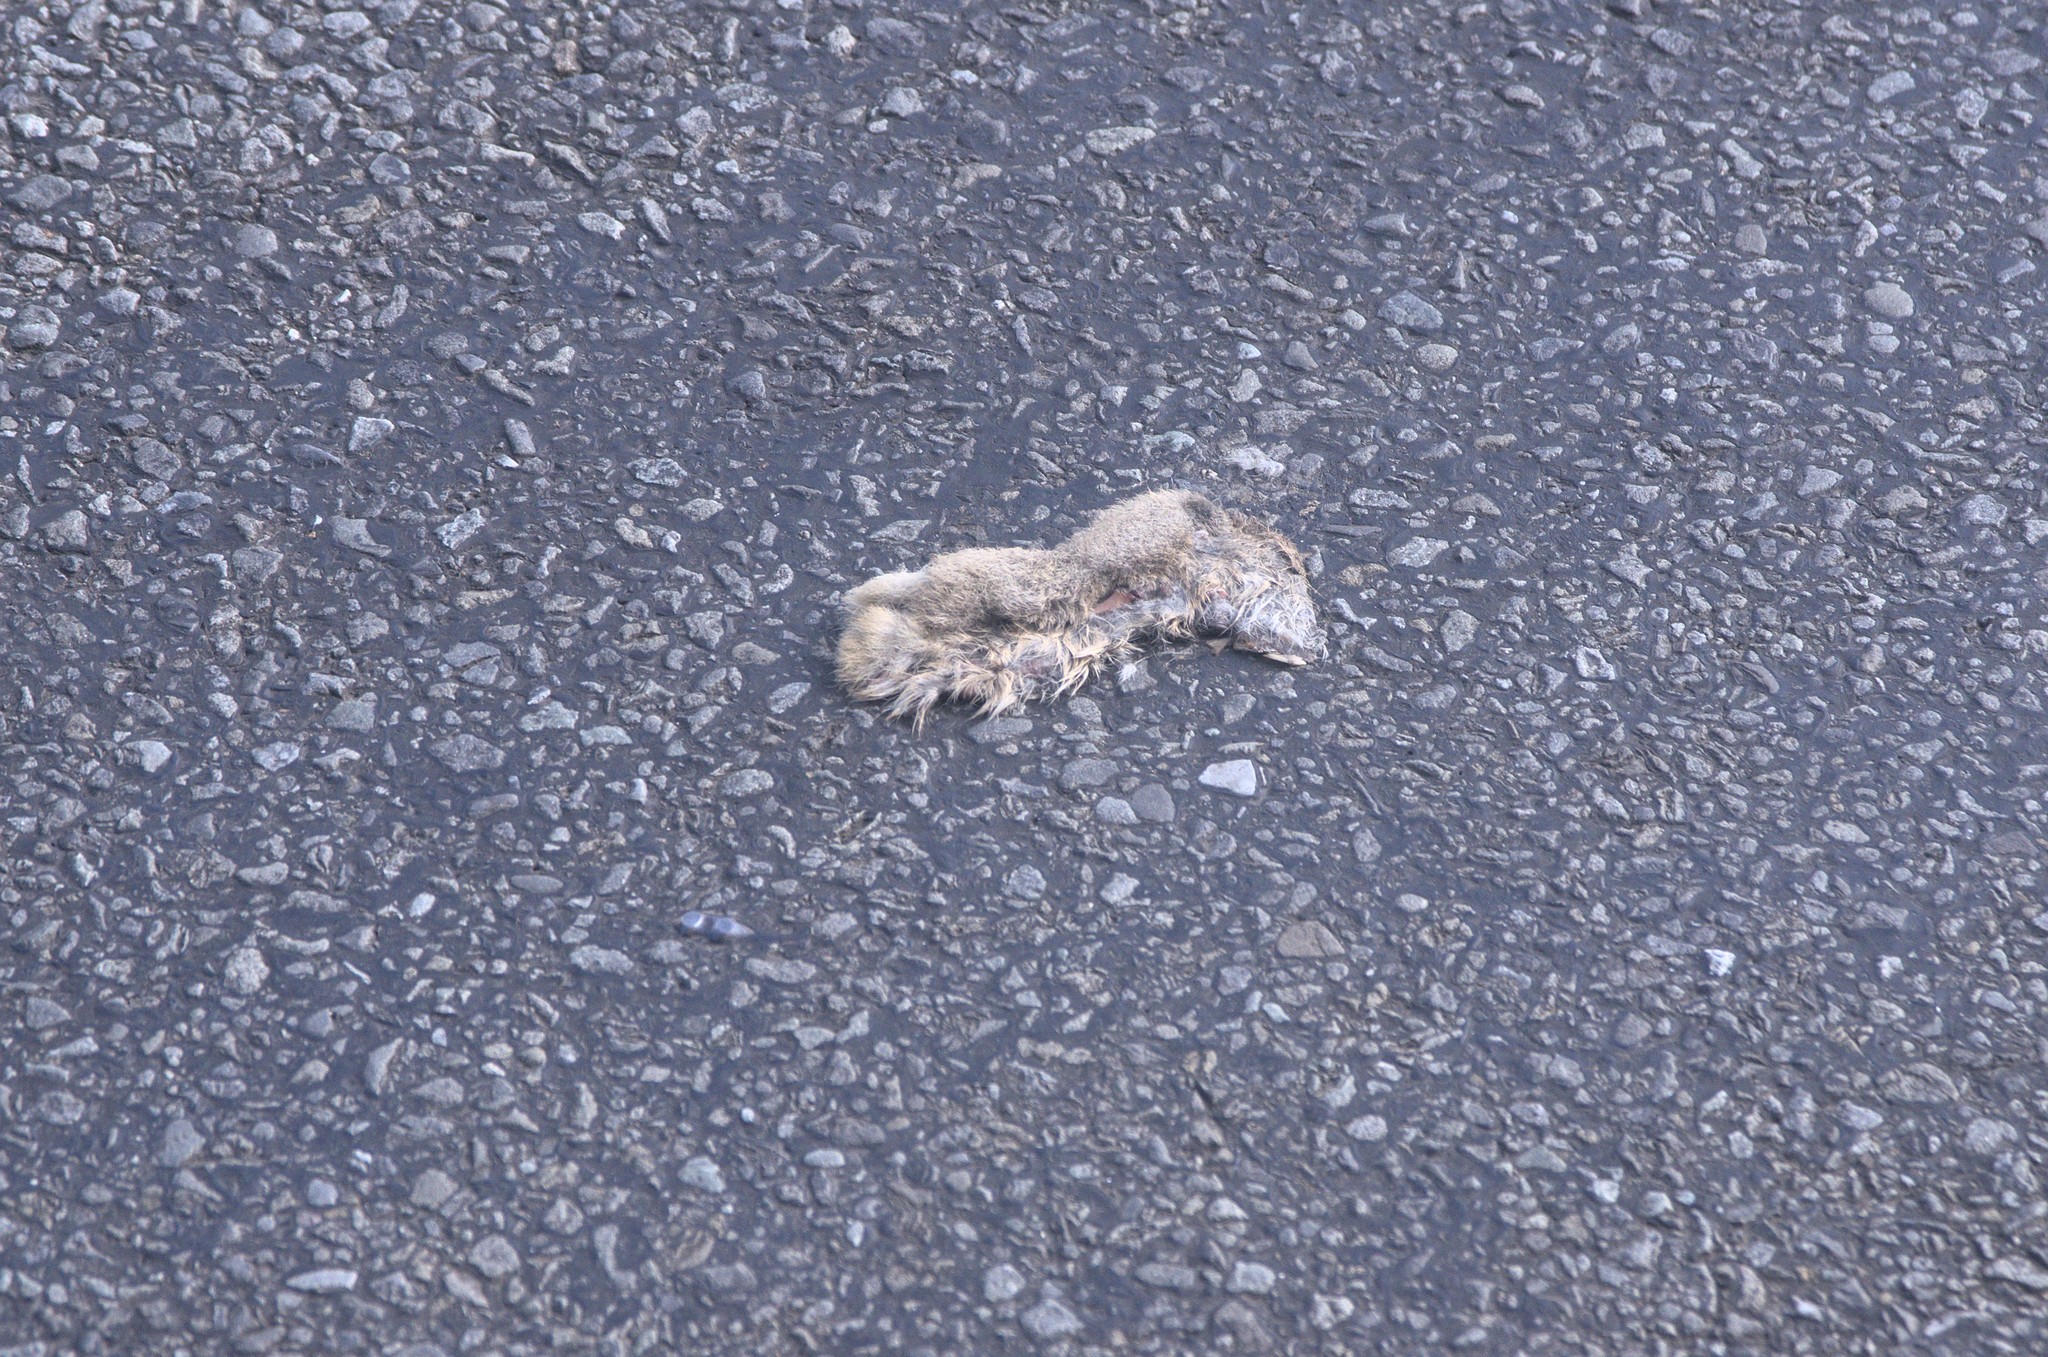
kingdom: Animalia
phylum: Chordata
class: Mammalia
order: Lagomorpha
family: Leporidae
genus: Oryctolagus
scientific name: Oryctolagus cuniculus
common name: European rabbit
